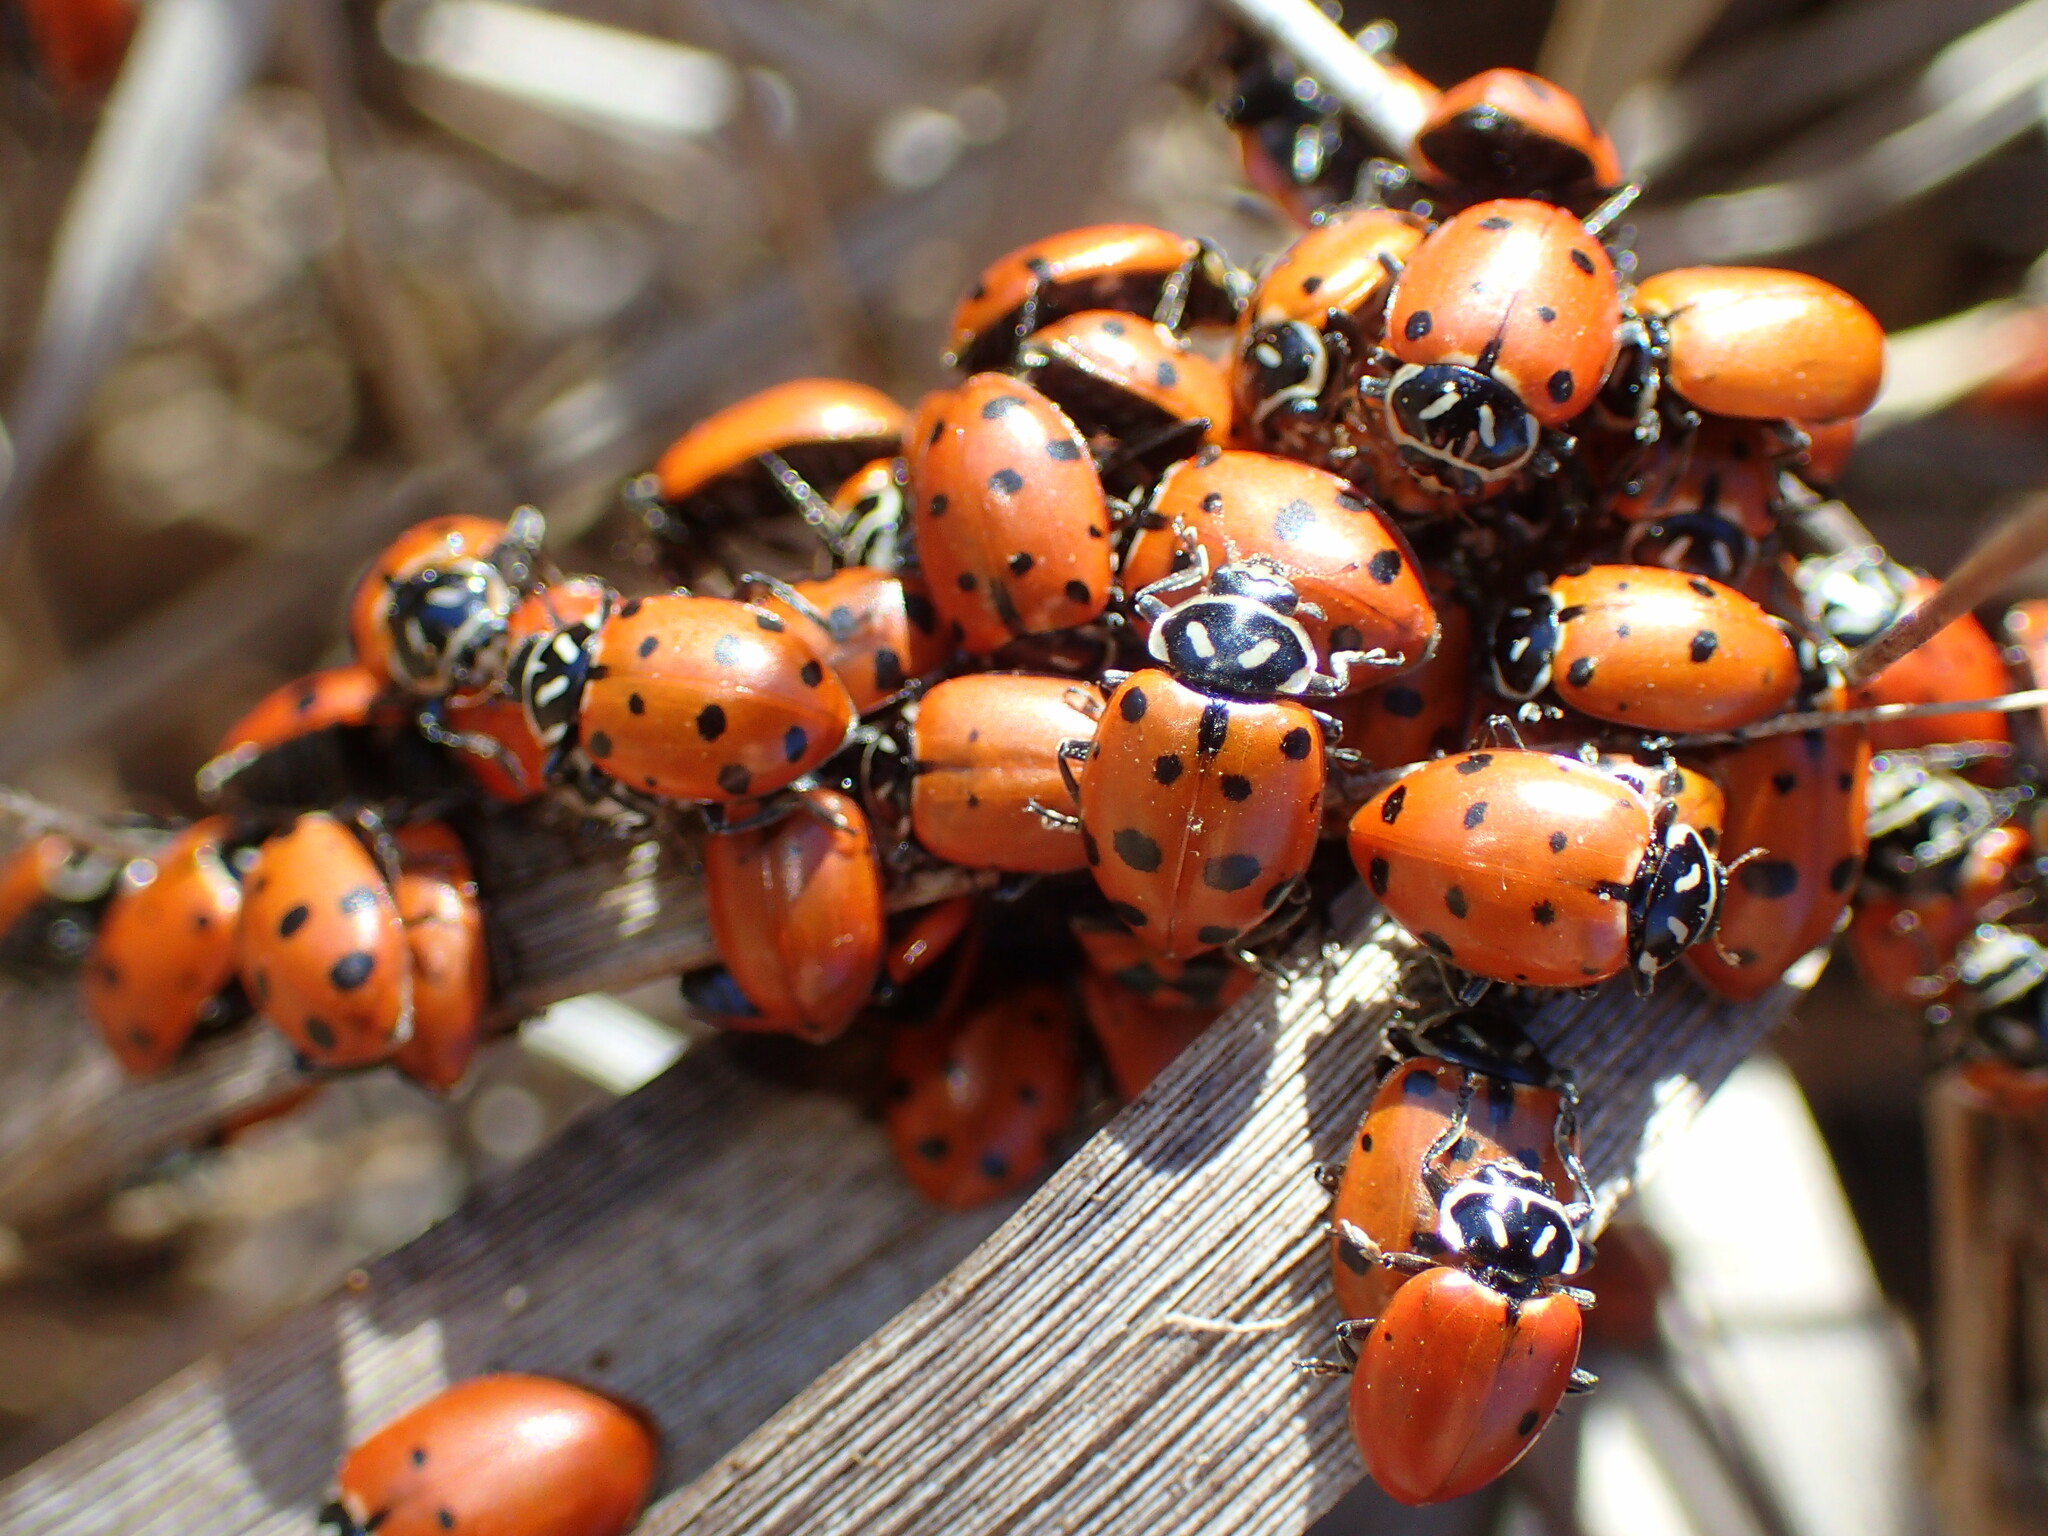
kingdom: Animalia
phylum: Arthropoda
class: Insecta
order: Coleoptera
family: Coccinellidae
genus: Hippodamia
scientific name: Hippodamia convergens
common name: Convergent lady beetle
